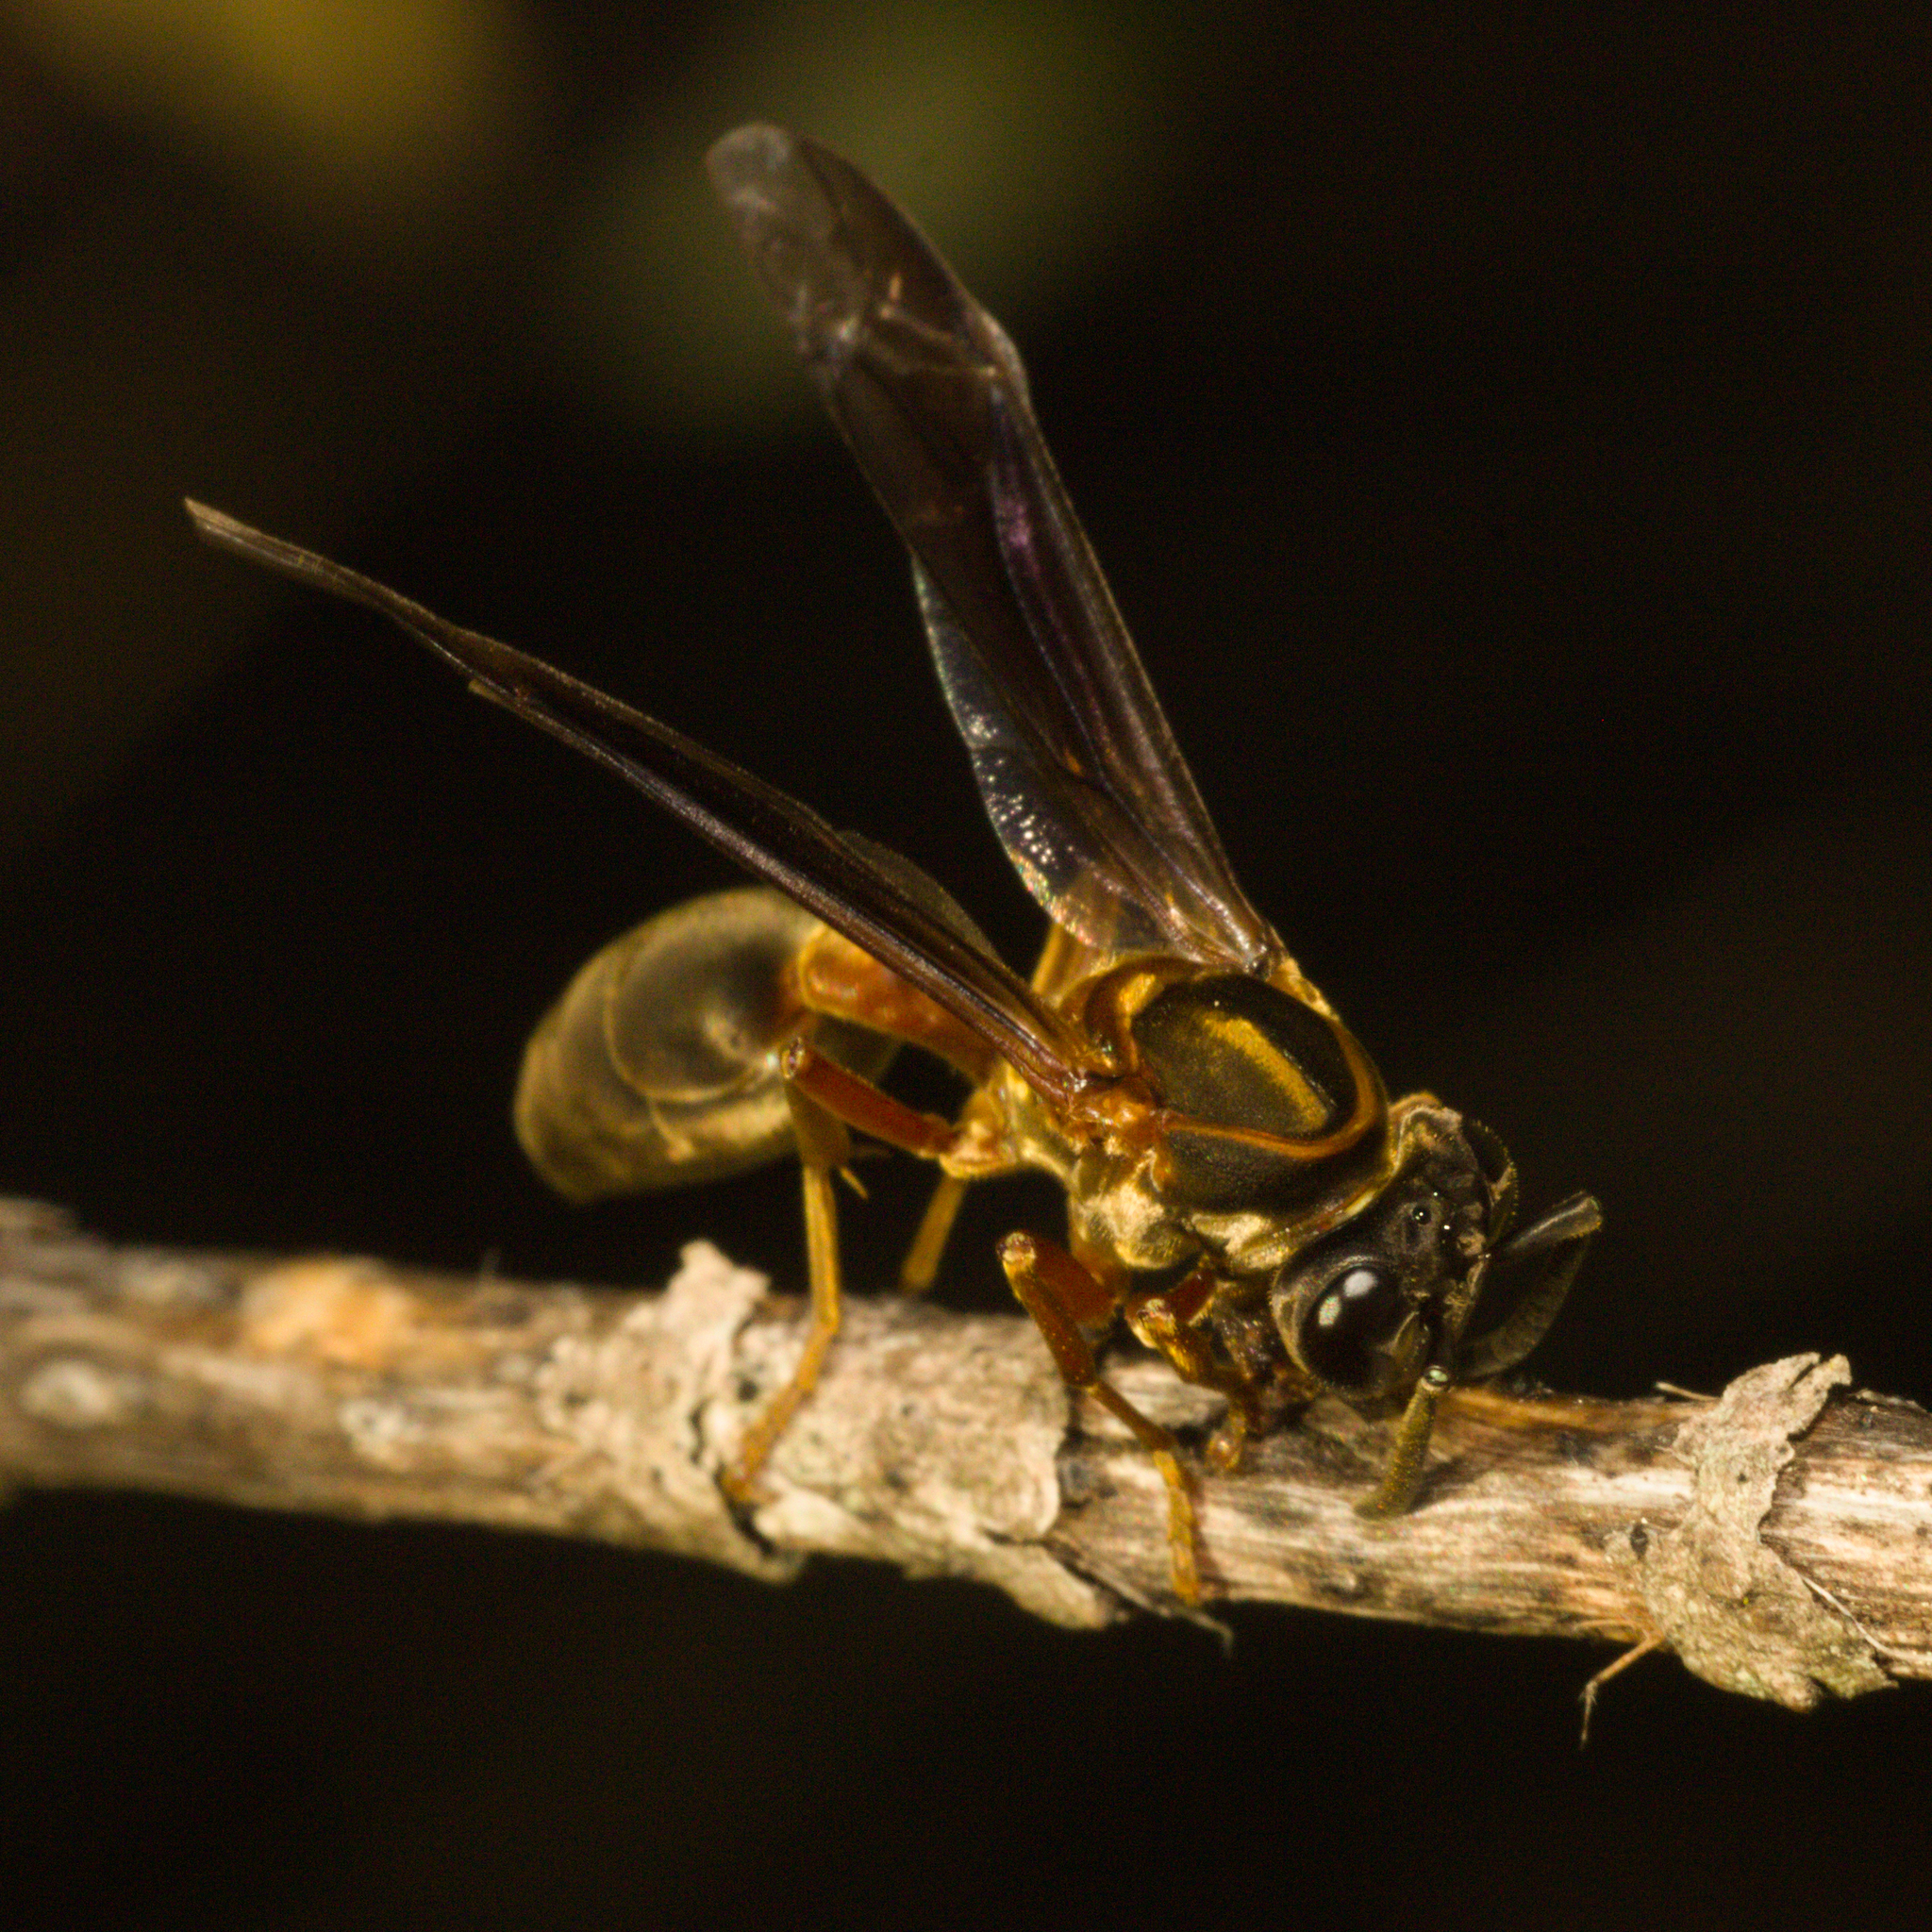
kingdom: Animalia
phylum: Arthropoda
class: Insecta
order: Hymenoptera
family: Eumenidae
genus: Polybia
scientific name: Polybia sericea
